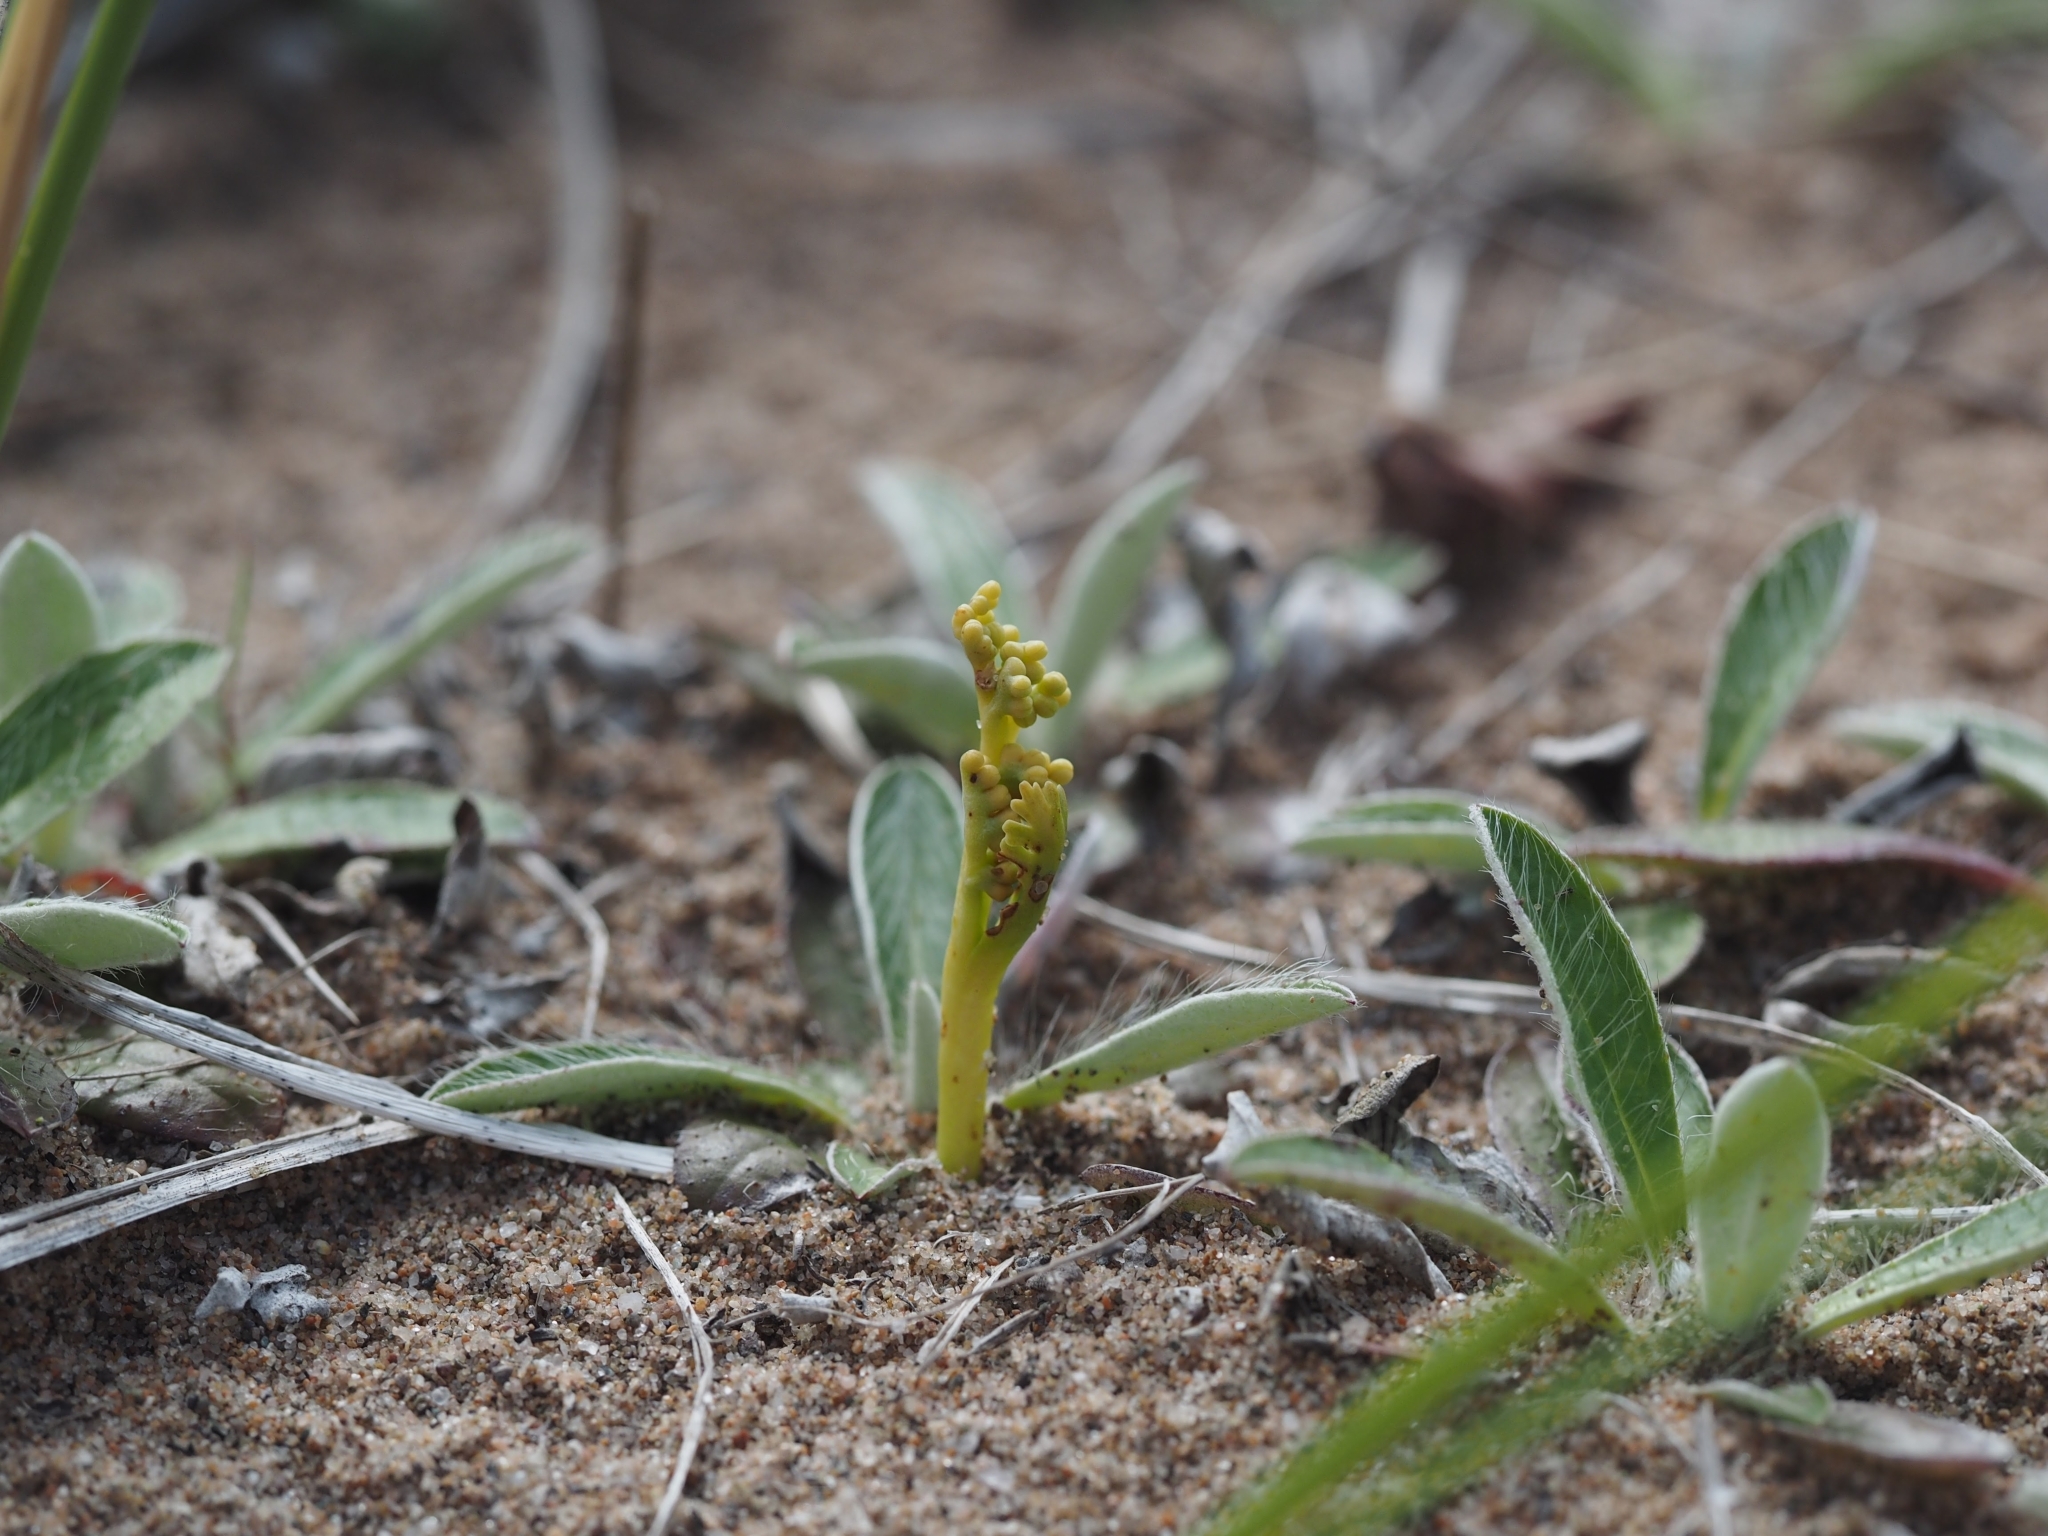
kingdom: Plantae
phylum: Tracheophyta
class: Polypodiopsida
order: Ophioglossales
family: Ophioglossaceae
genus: Botrychium
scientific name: Botrychium ascendens
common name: Ascending grapefern
